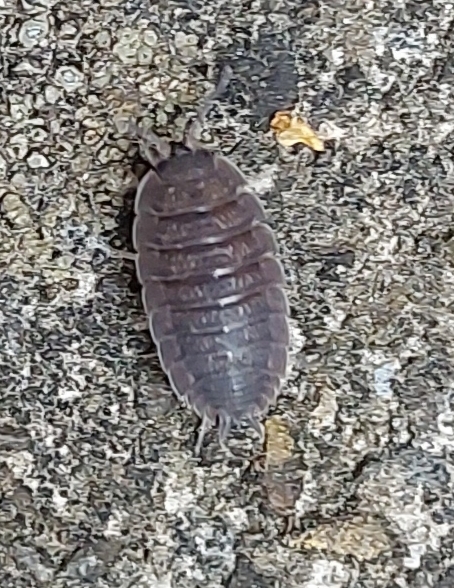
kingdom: Animalia
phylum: Arthropoda
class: Malacostraca
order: Isopoda
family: Porcellionidae
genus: Porcellio
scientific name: Porcellio scaber
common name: Common rough woodlouse
